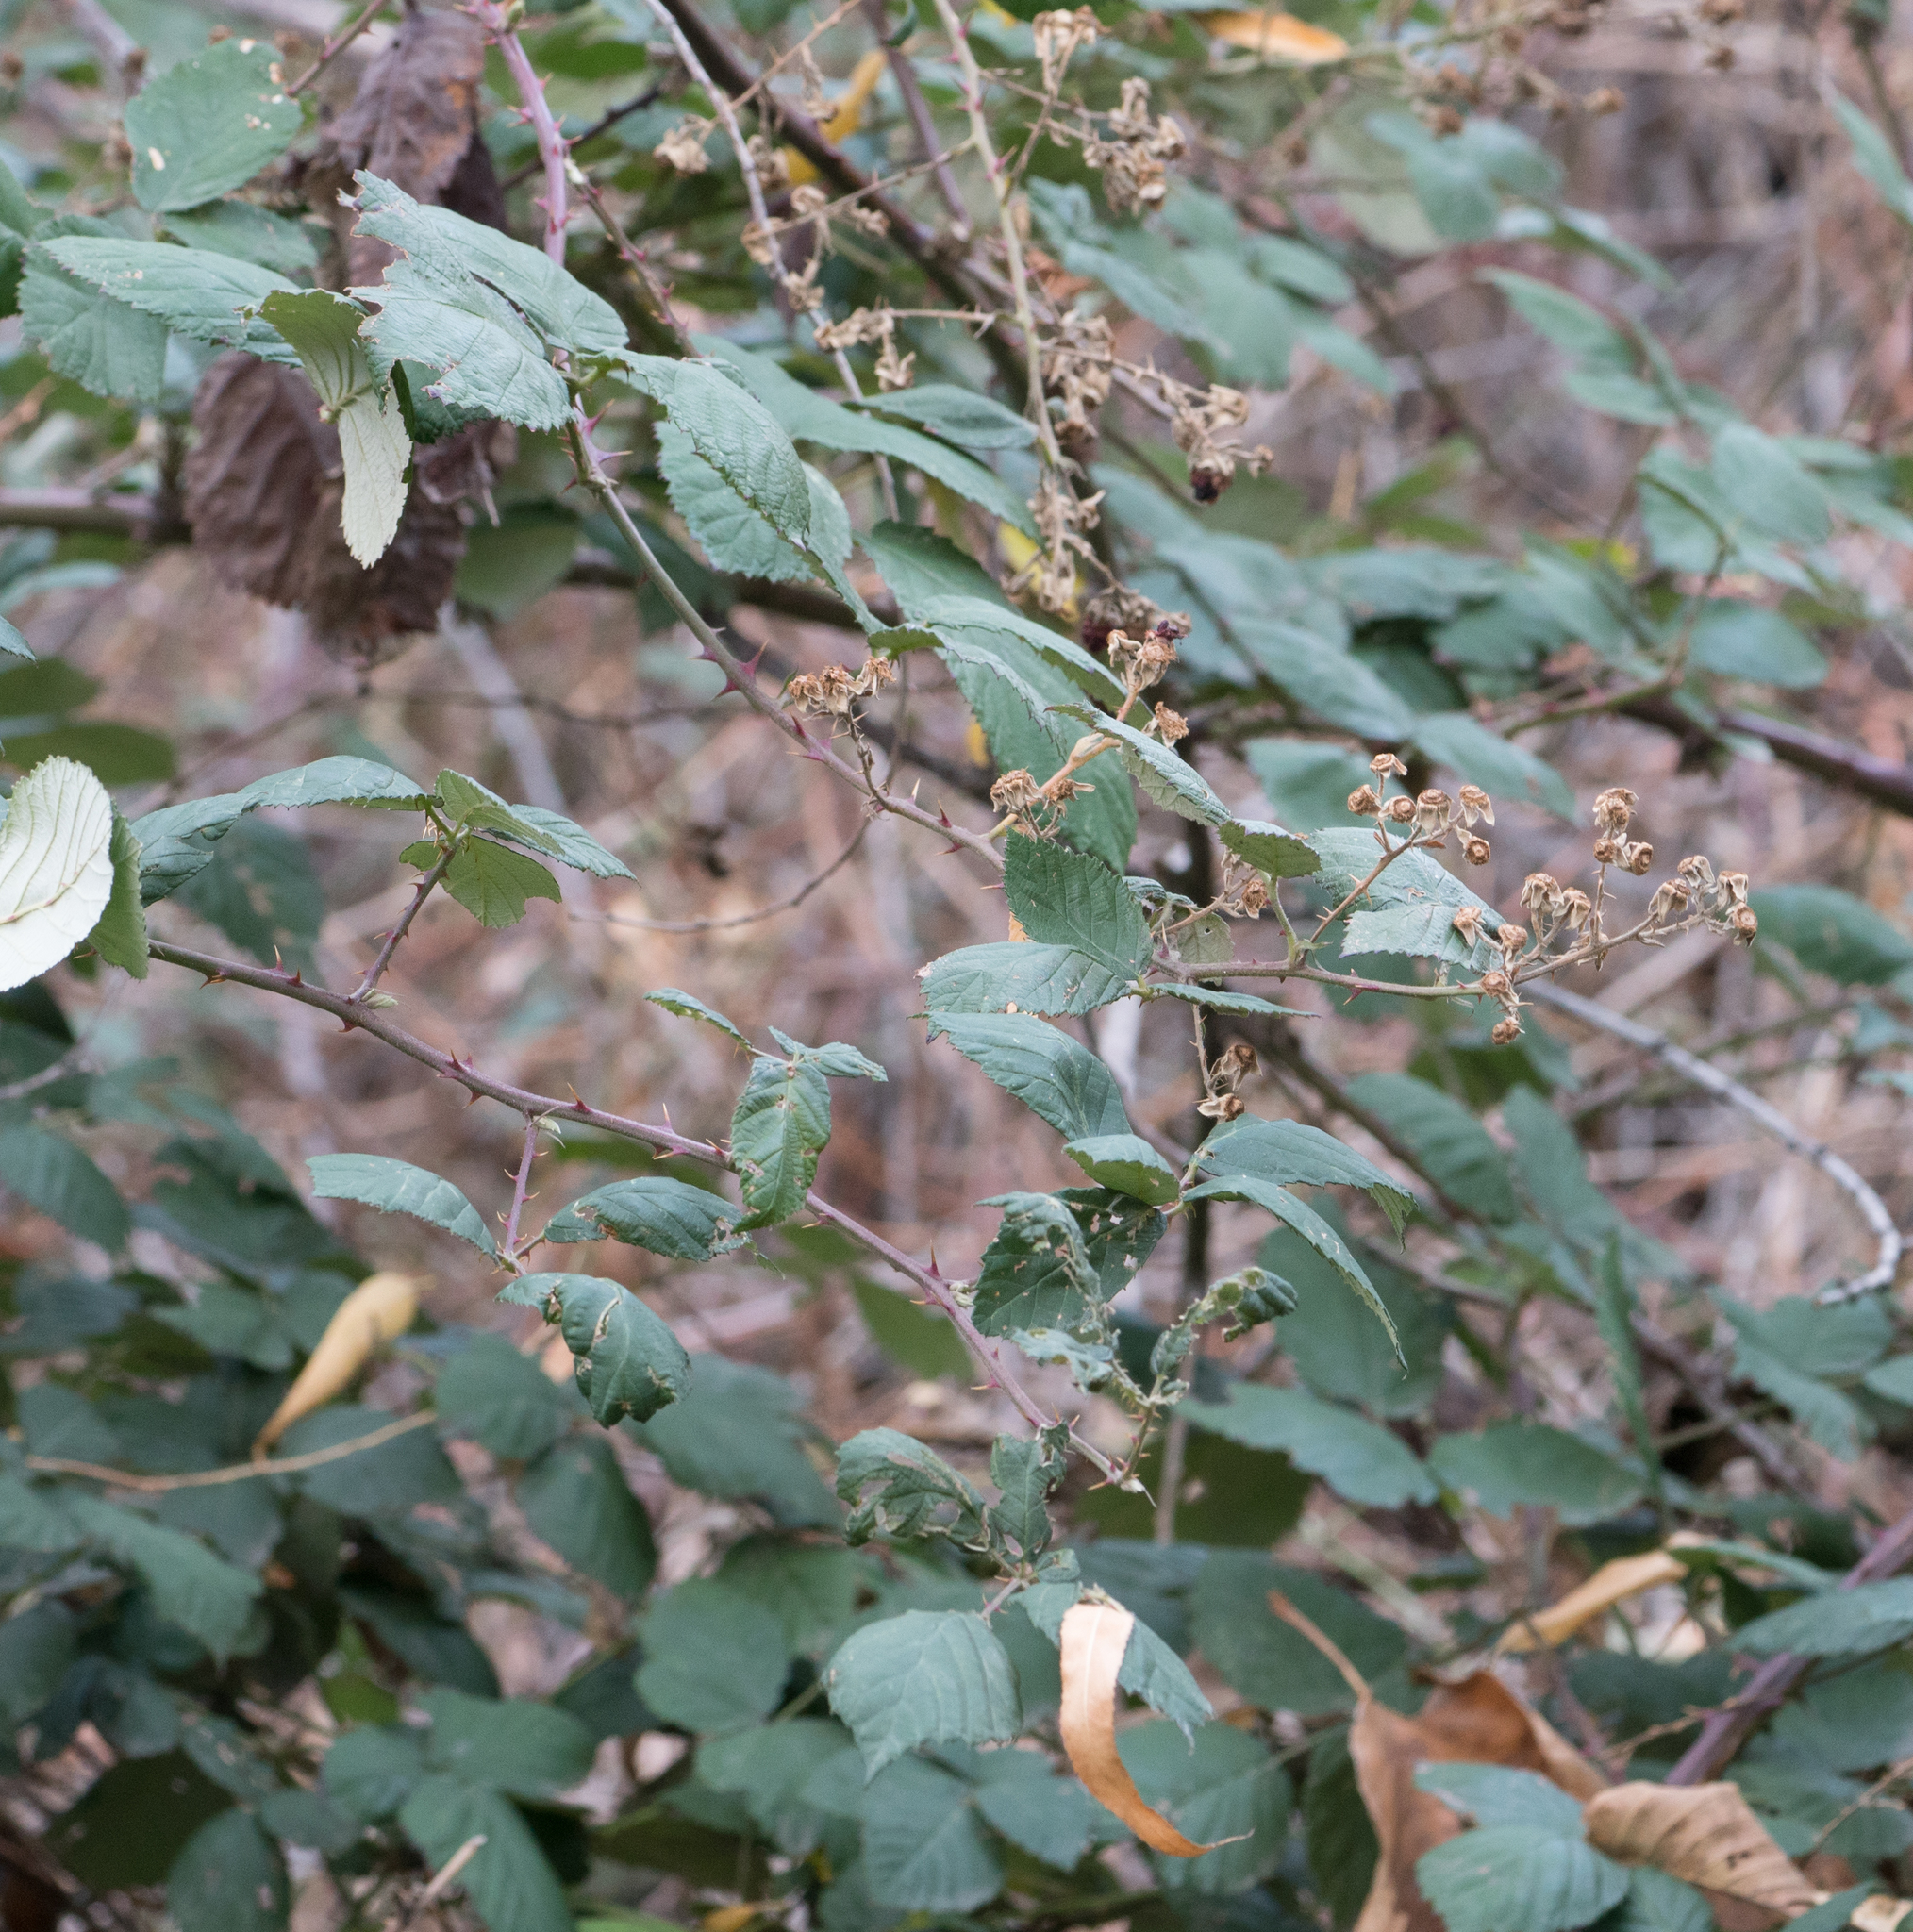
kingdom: Plantae
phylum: Tracheophyta
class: Magnoliopsida
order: Rosales
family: Rosaceae
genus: Rubus
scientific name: Rubus armeniacus
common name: Himalayan blackberry
